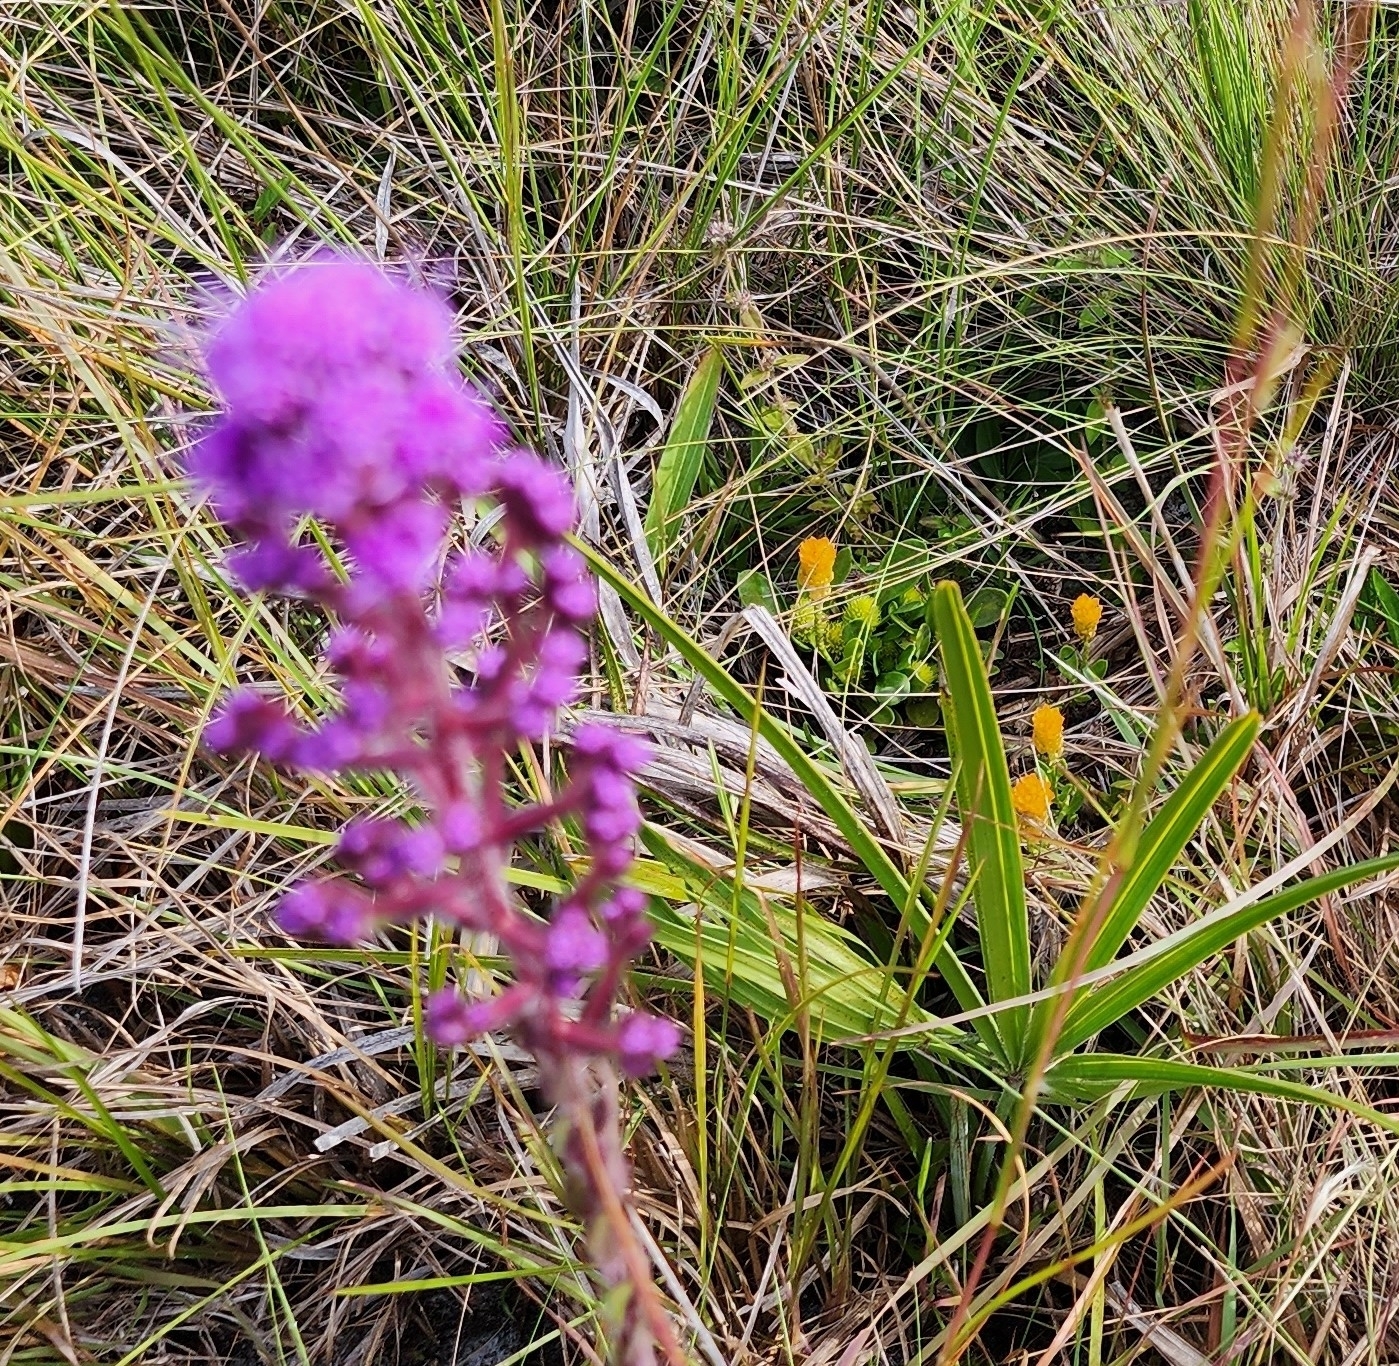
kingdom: Plantae
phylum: Tracheophyta
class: Magnoliopsida
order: Asterales
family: Asteraceae
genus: Carphephorus
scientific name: Carphephorus paniculatus
